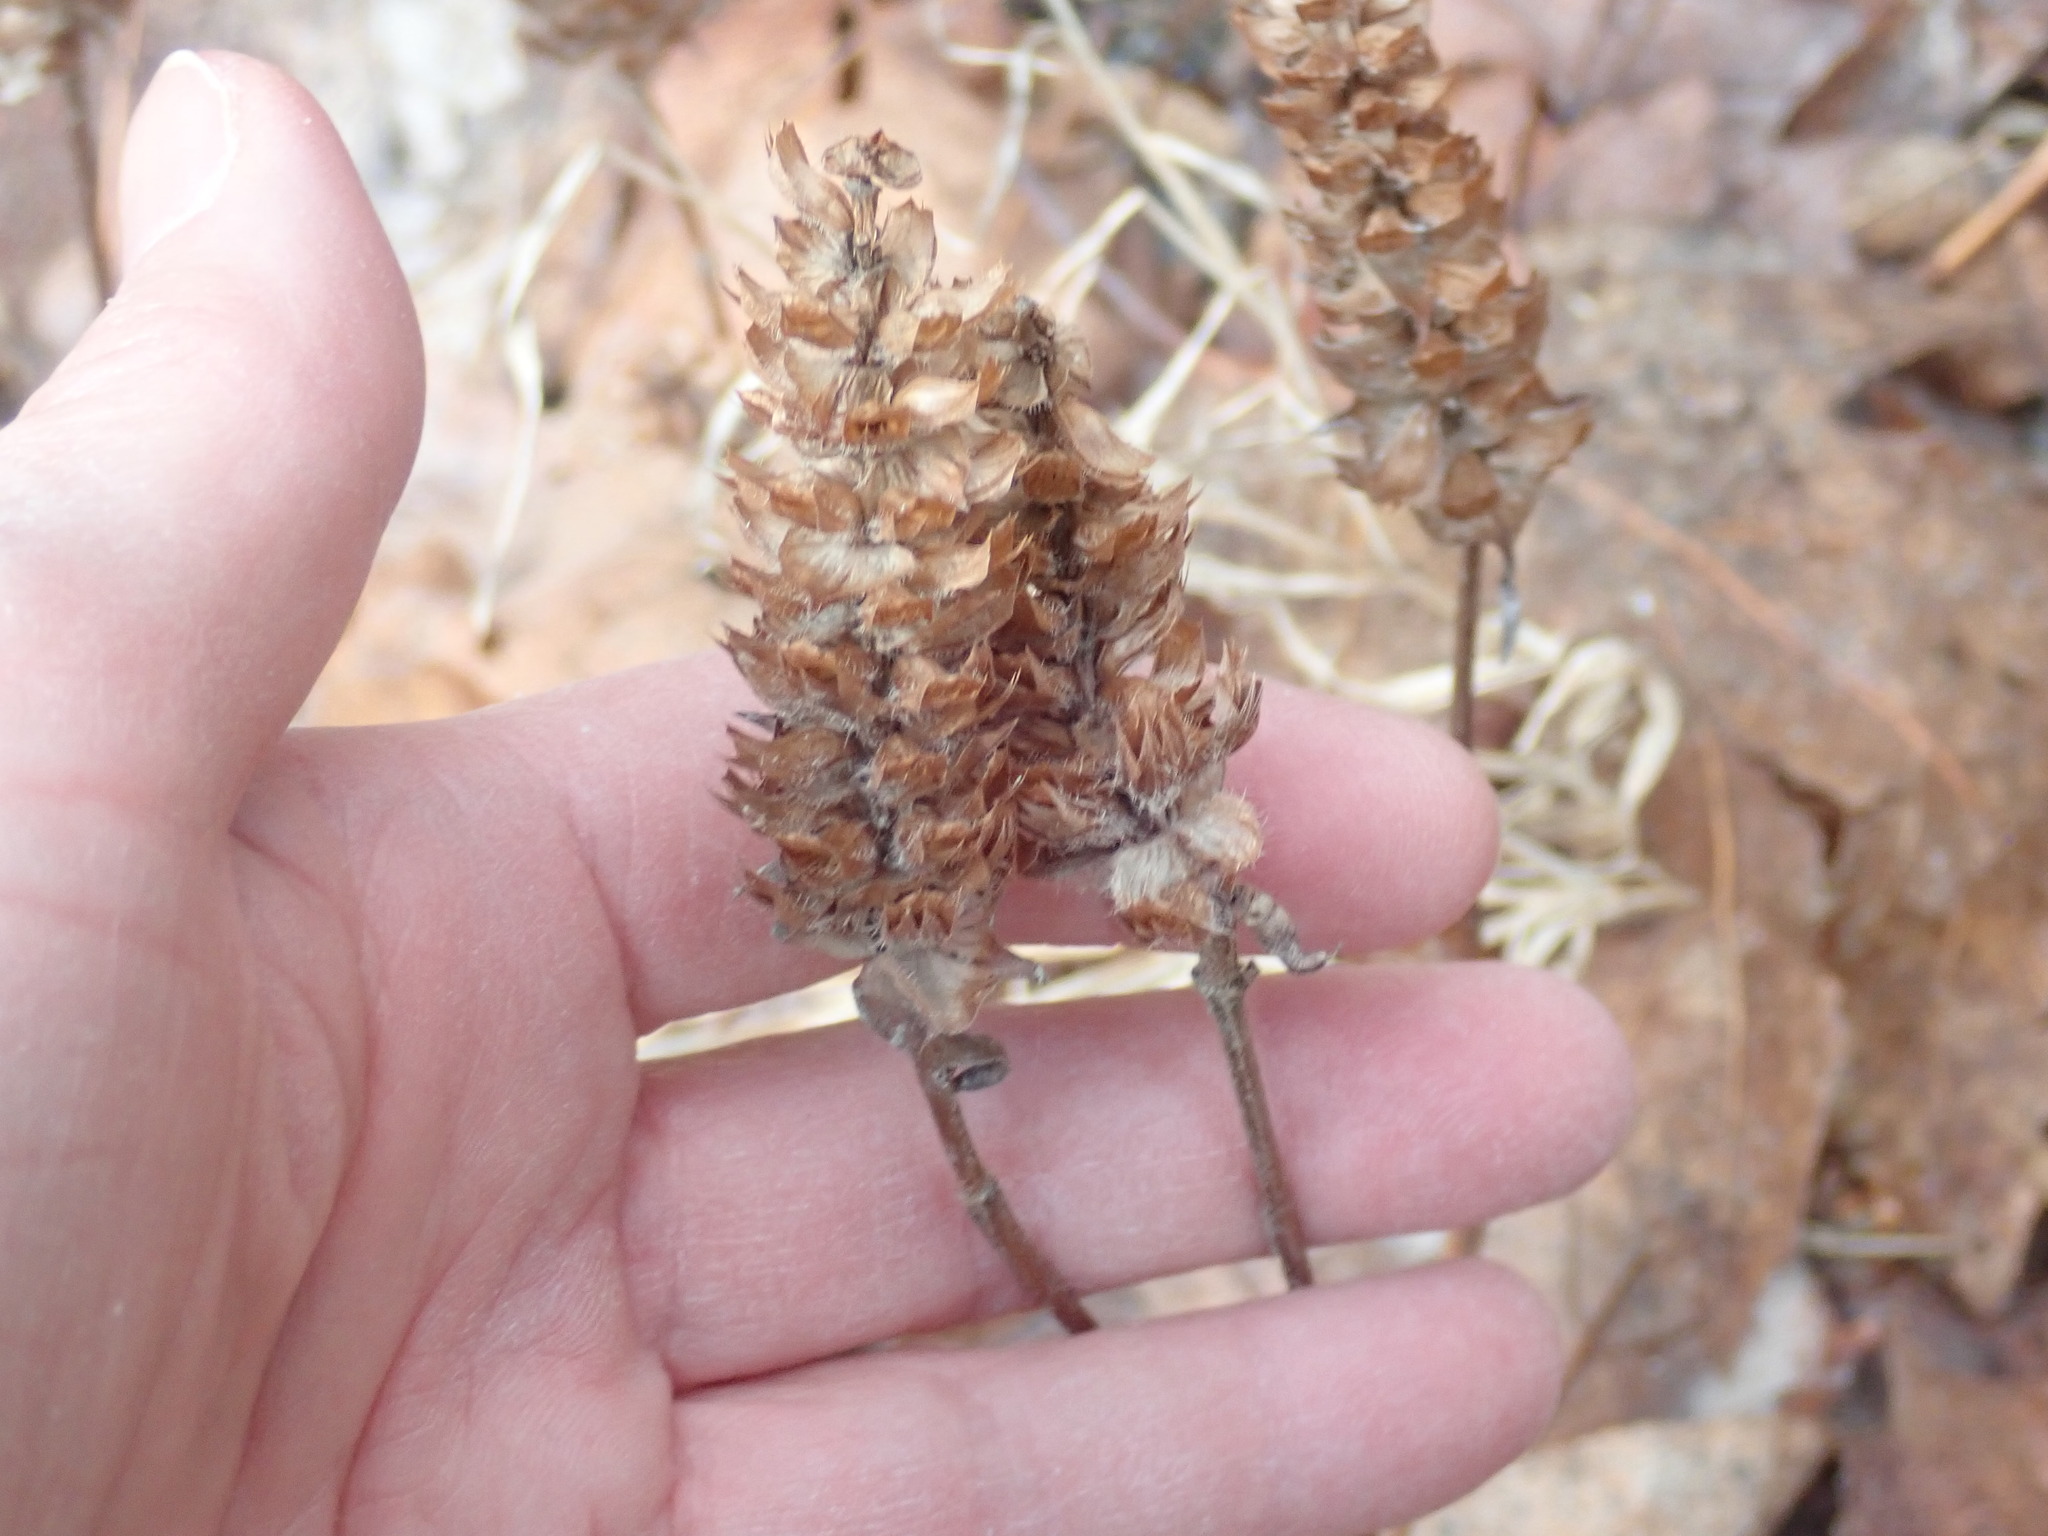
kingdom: Plantae
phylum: Tracheophyta
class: Magnoliopsida
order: Lamiales
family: Lamiaceae
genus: Prunella
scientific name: Prunella vulgaris
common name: Heal-all
